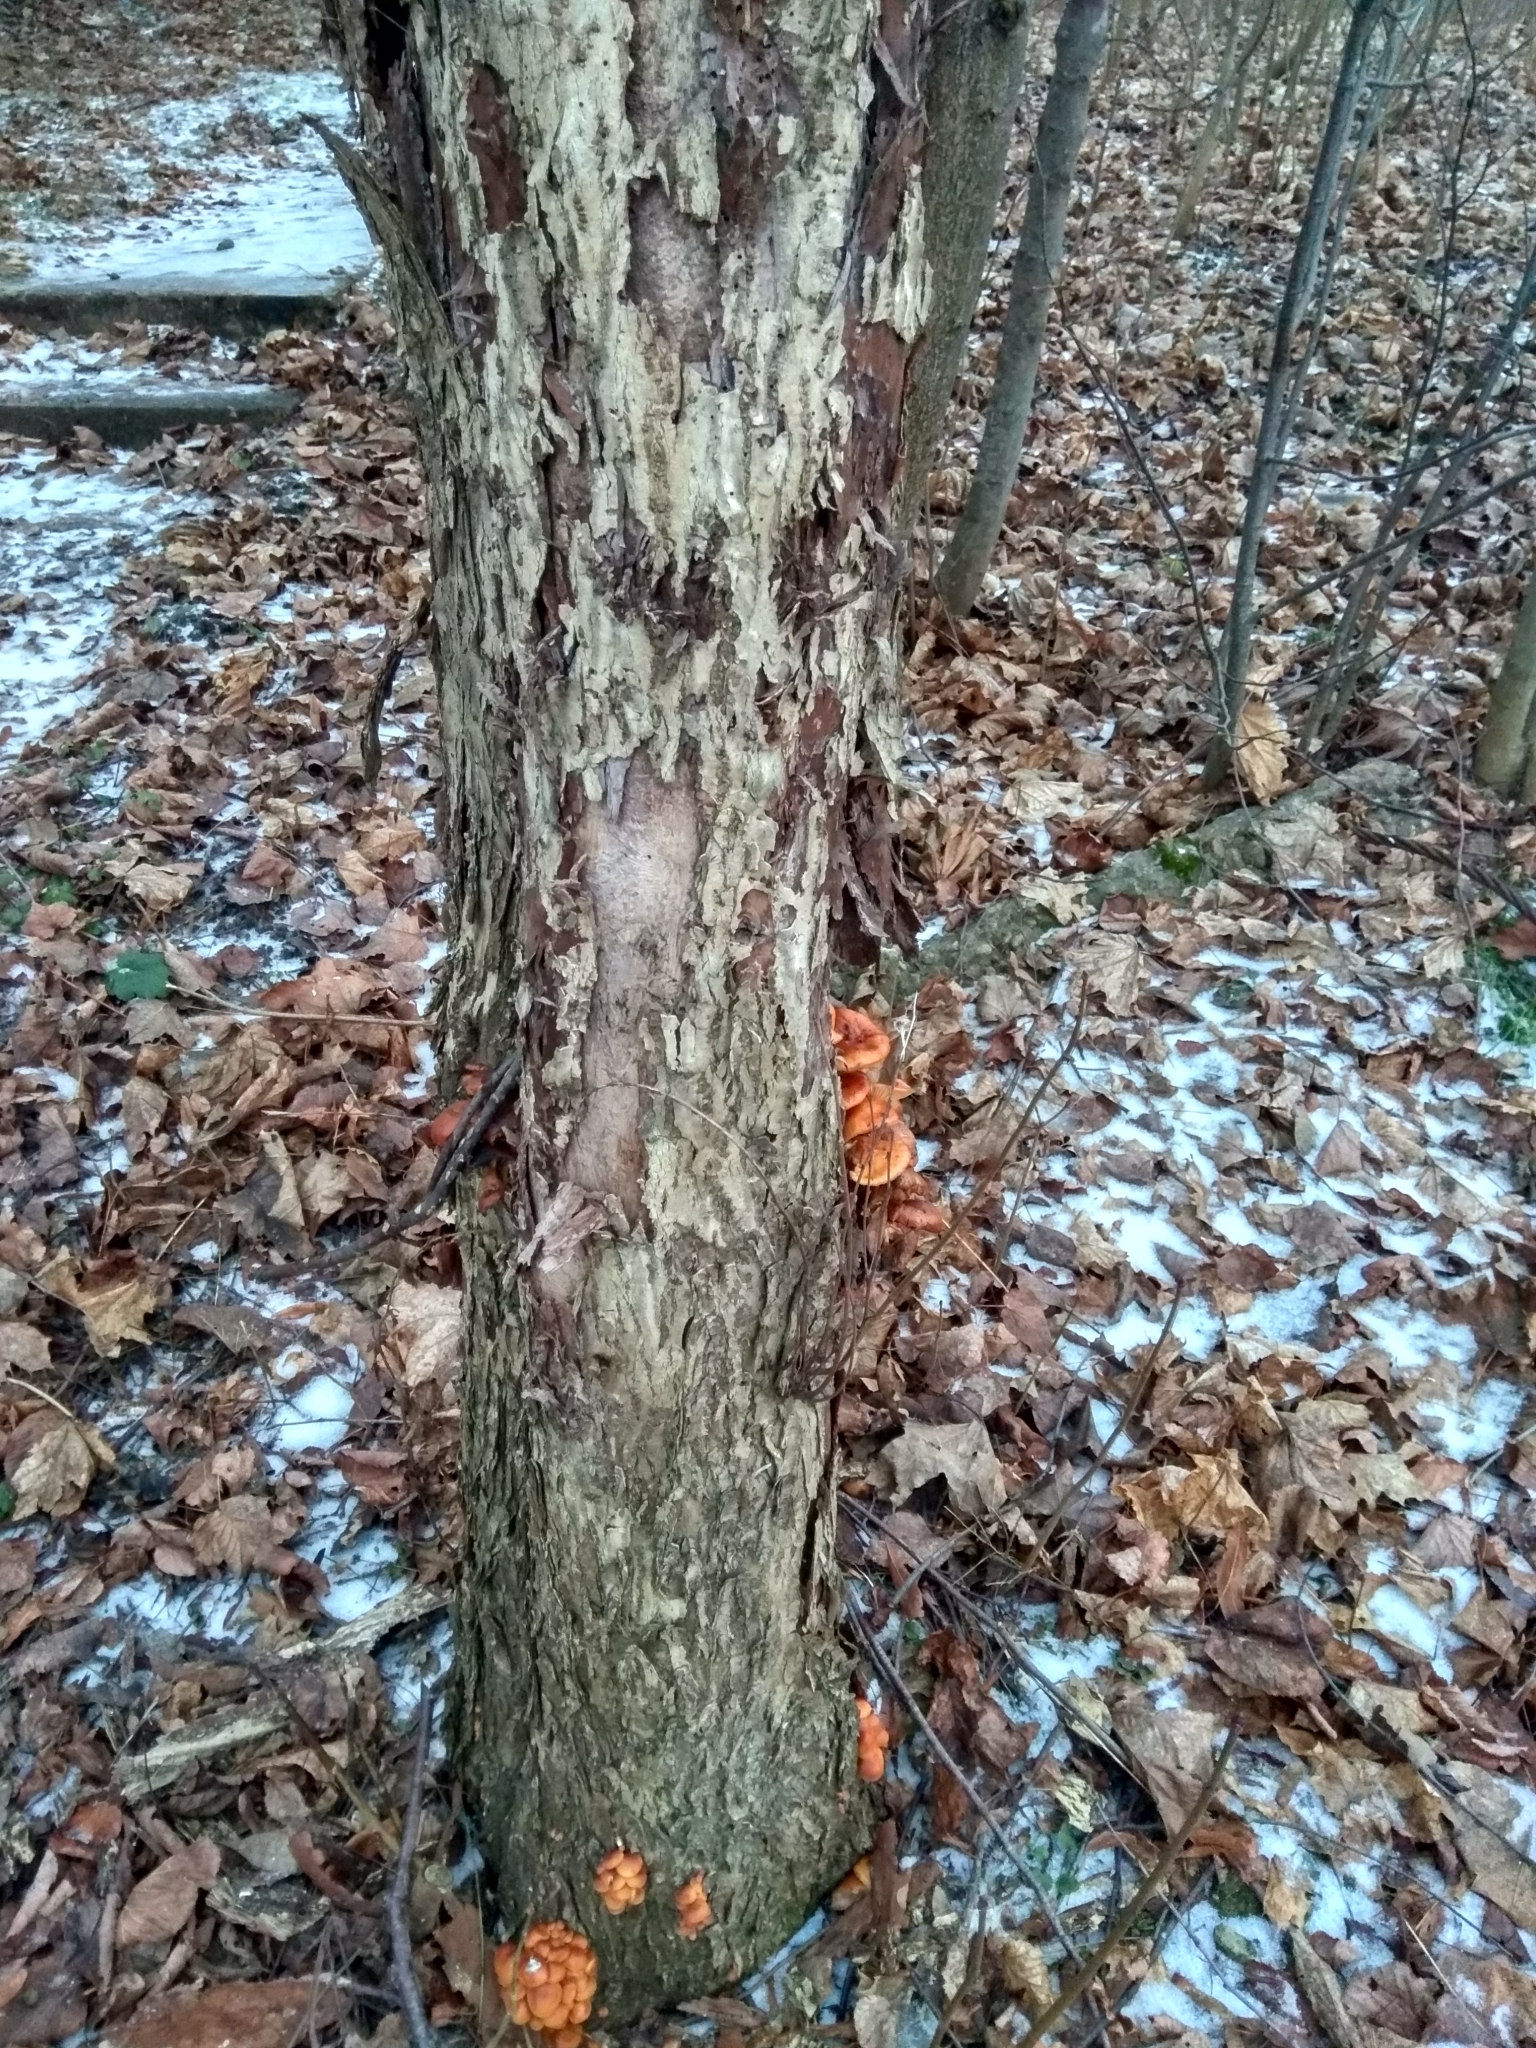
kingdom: Fungi
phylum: Basidiomycota
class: Agaricomycetes
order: Agaricales
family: Physalacriaceae
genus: Flammulina
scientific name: Flammulina
